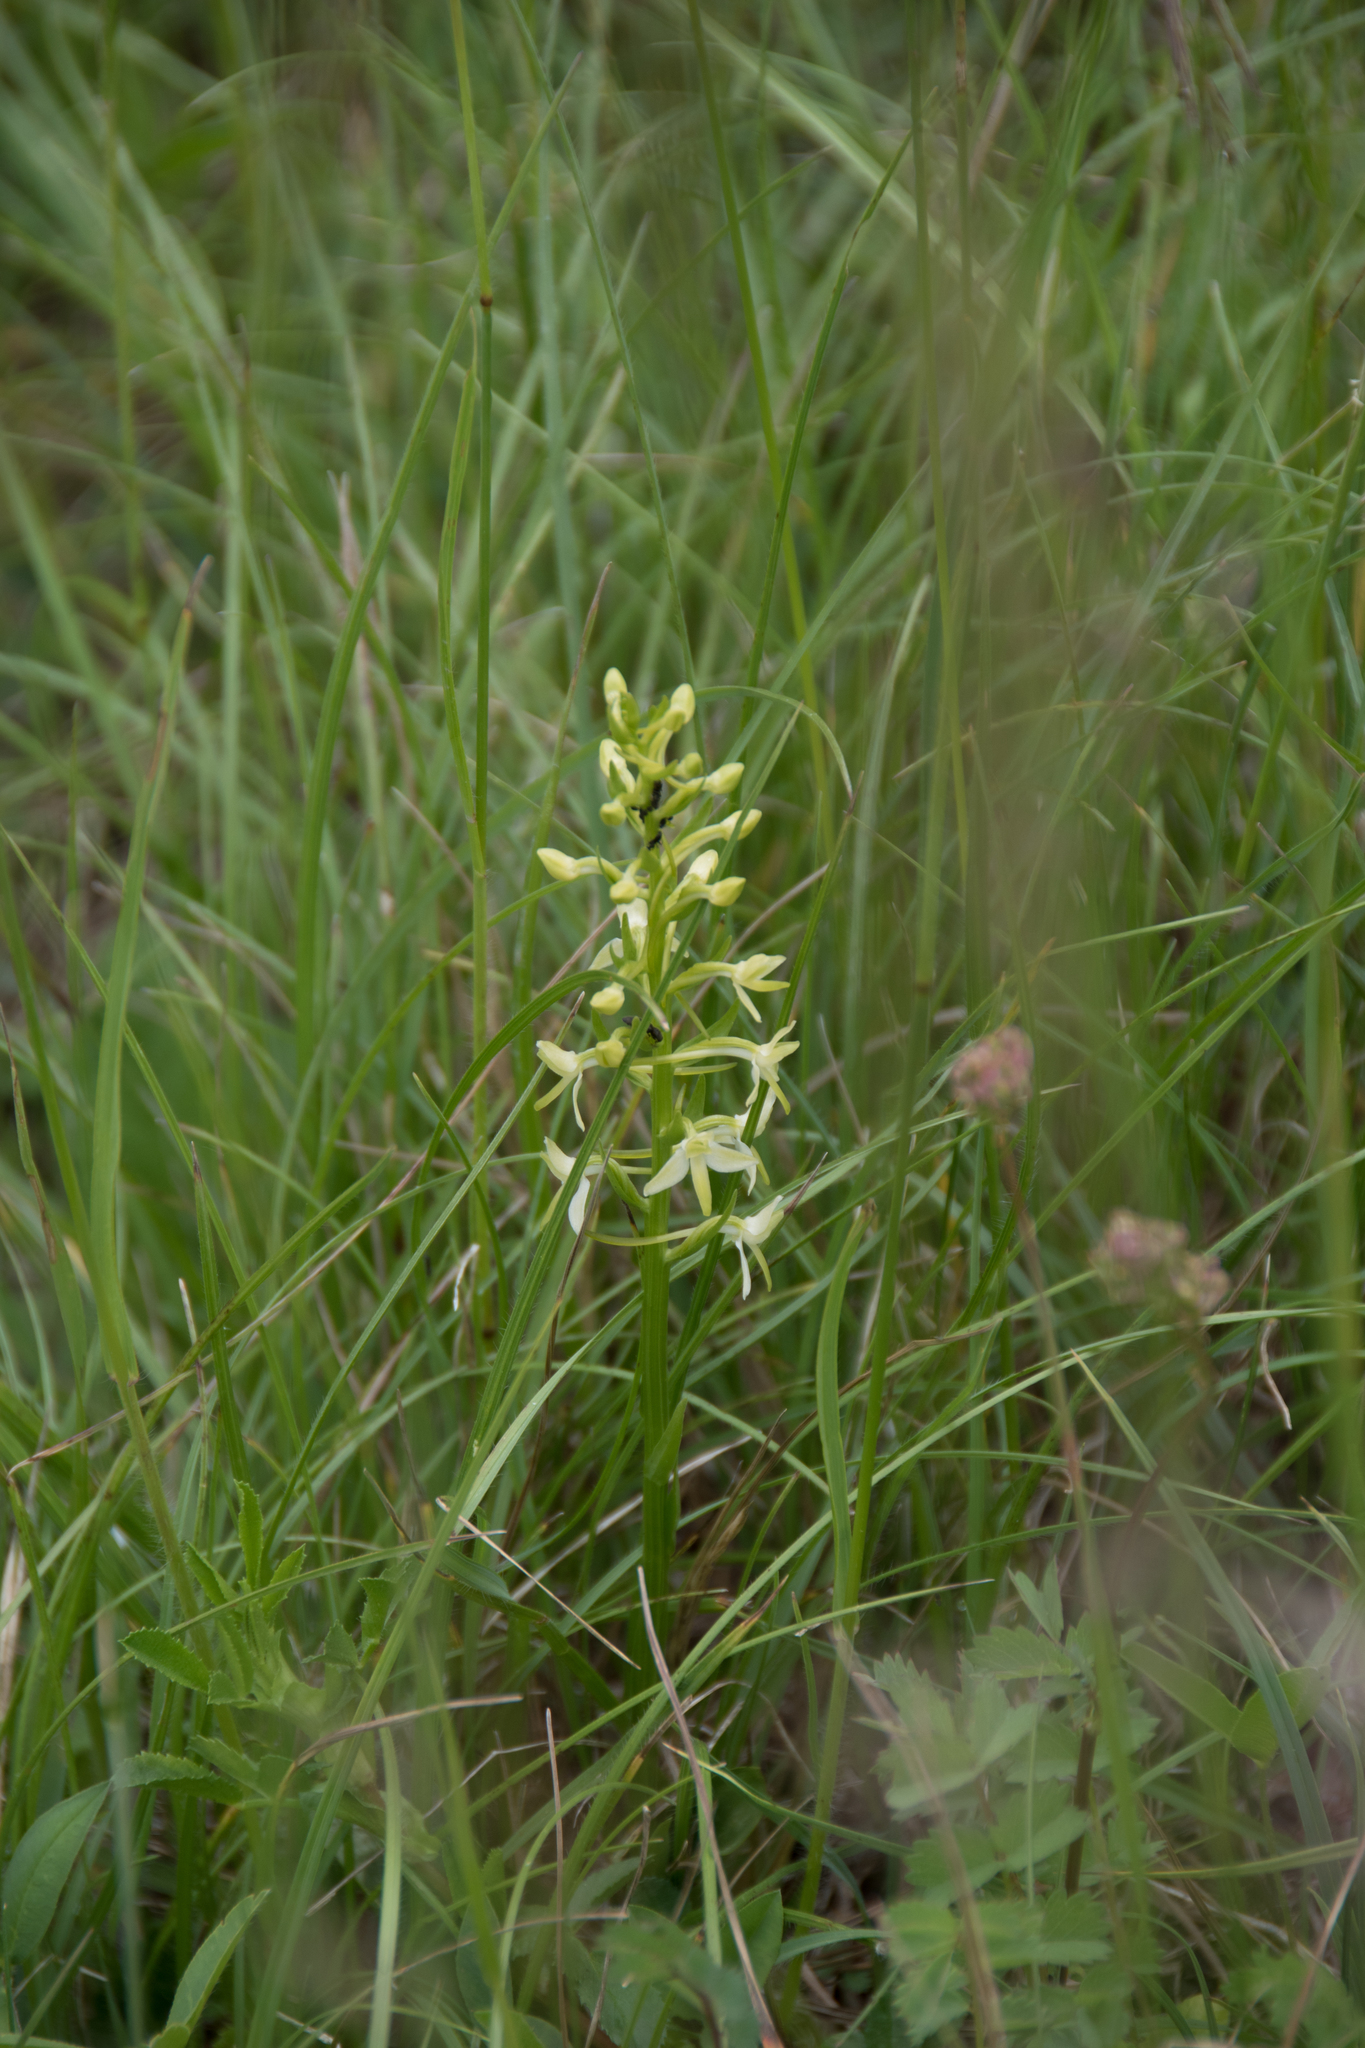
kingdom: Plantae
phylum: Tracheophyta
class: Liliopsida
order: Asparagales
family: Orchidaceae
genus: Platanthera
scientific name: Platanthera bifolia
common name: Lesser butterfly-orchid
